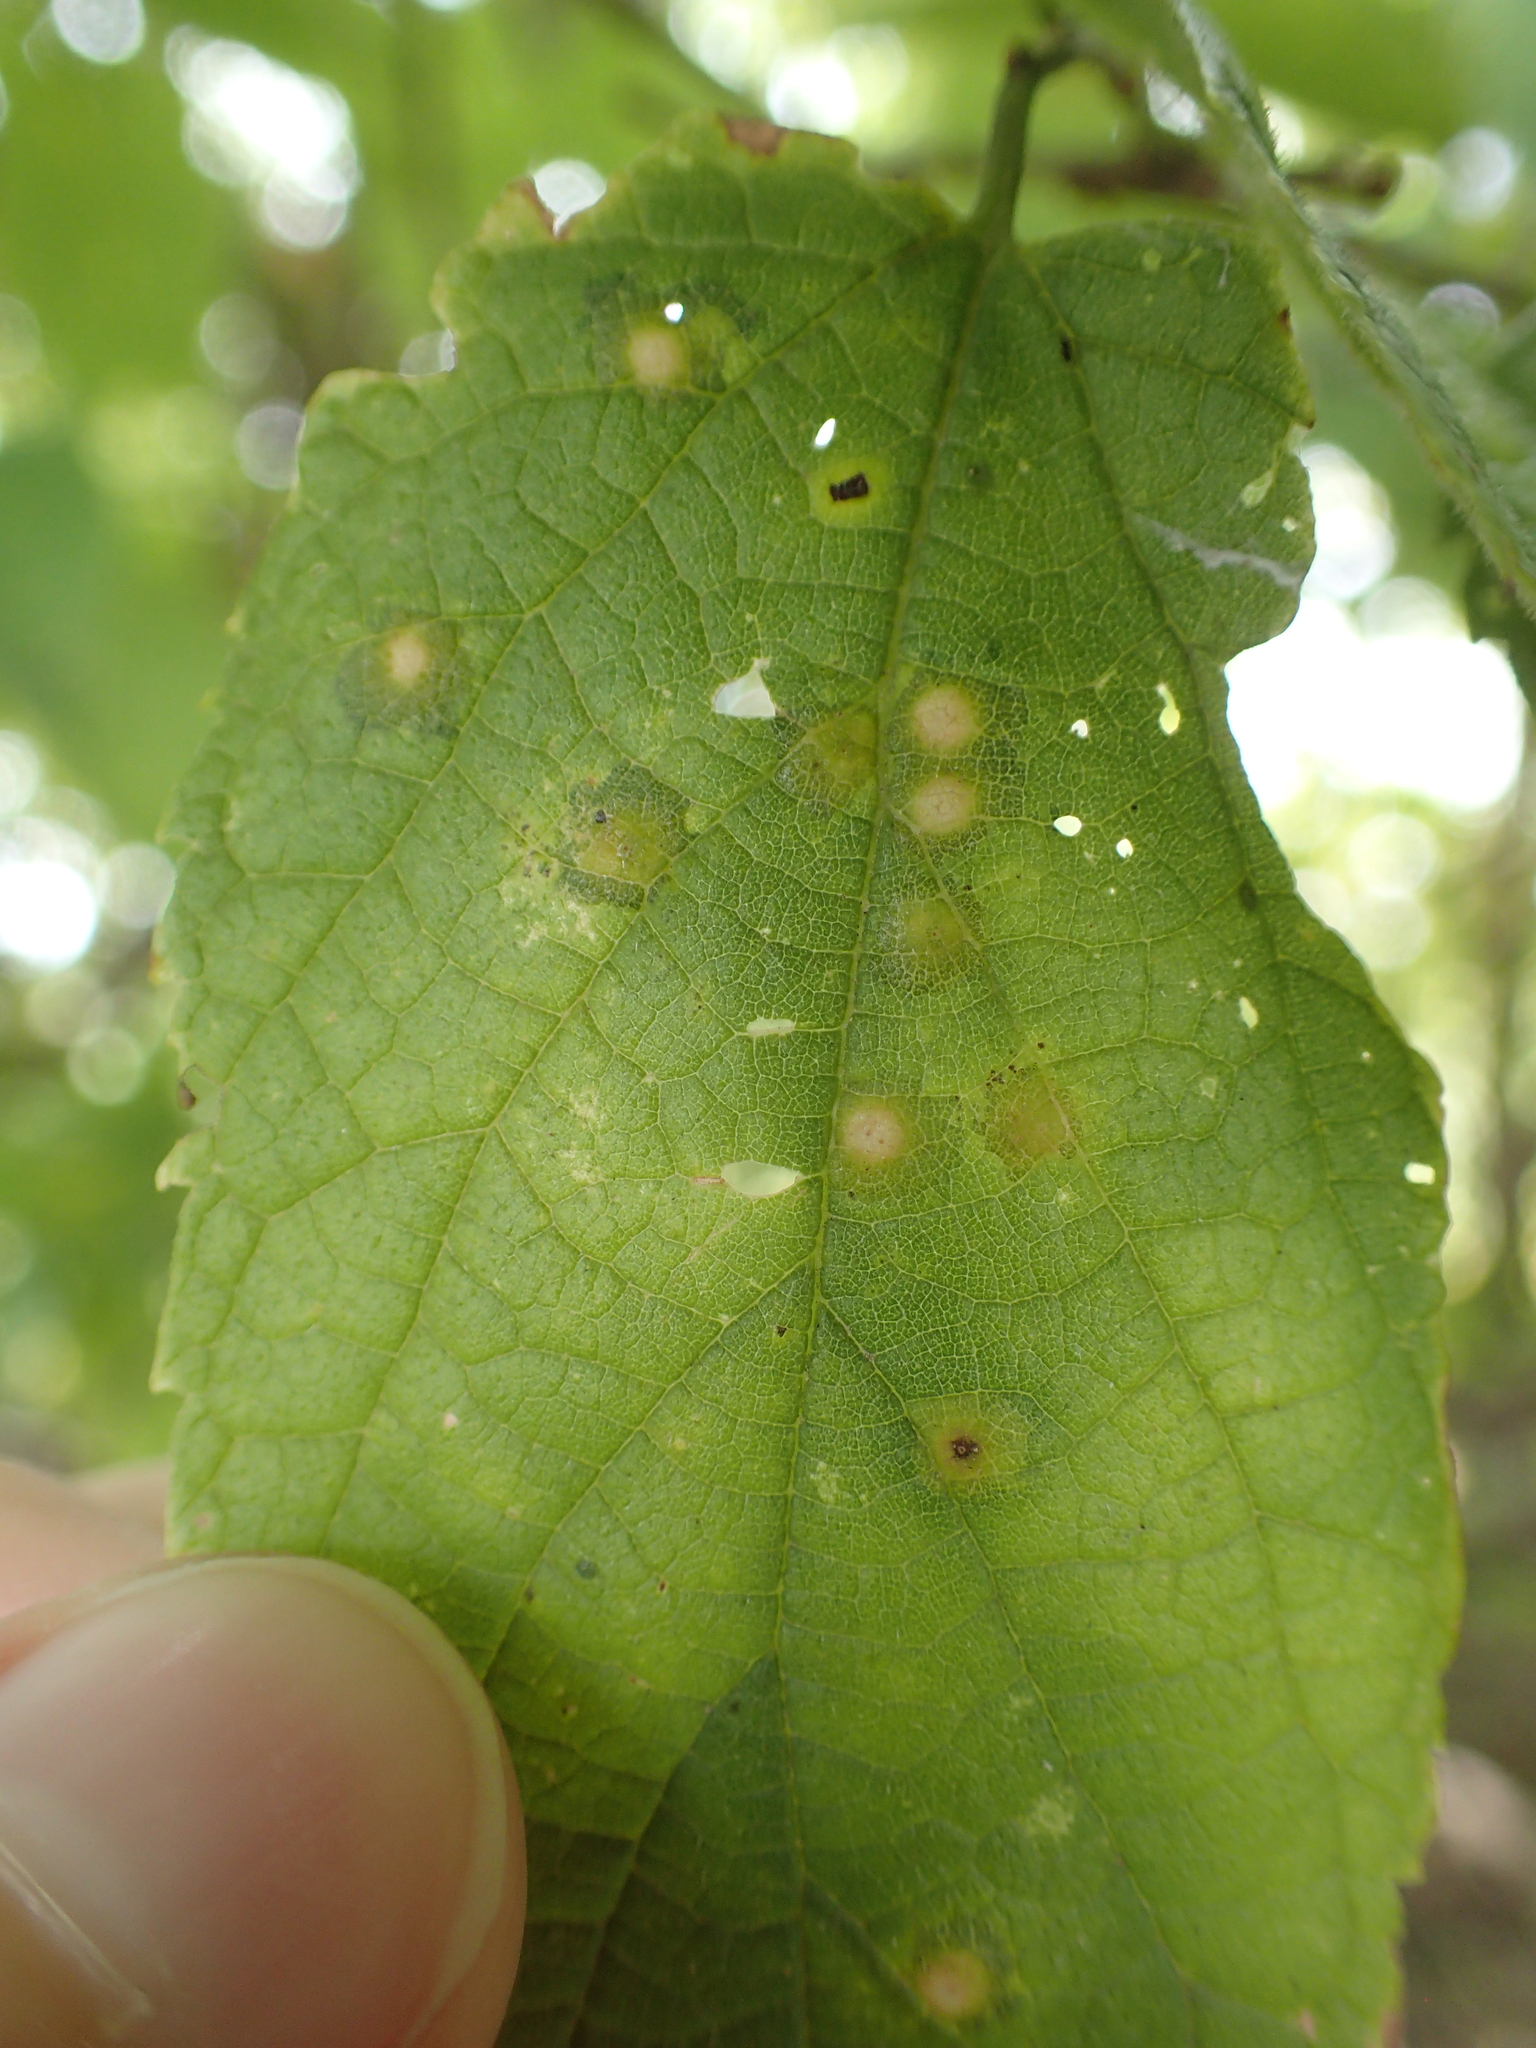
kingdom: Animalia
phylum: Arthropoda
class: Insecta
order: Hemiptera
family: Aphalaridae
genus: Pachypsylla
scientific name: Pachypsylla celtidisvesicula
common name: Hackberry blister gall psyllid
